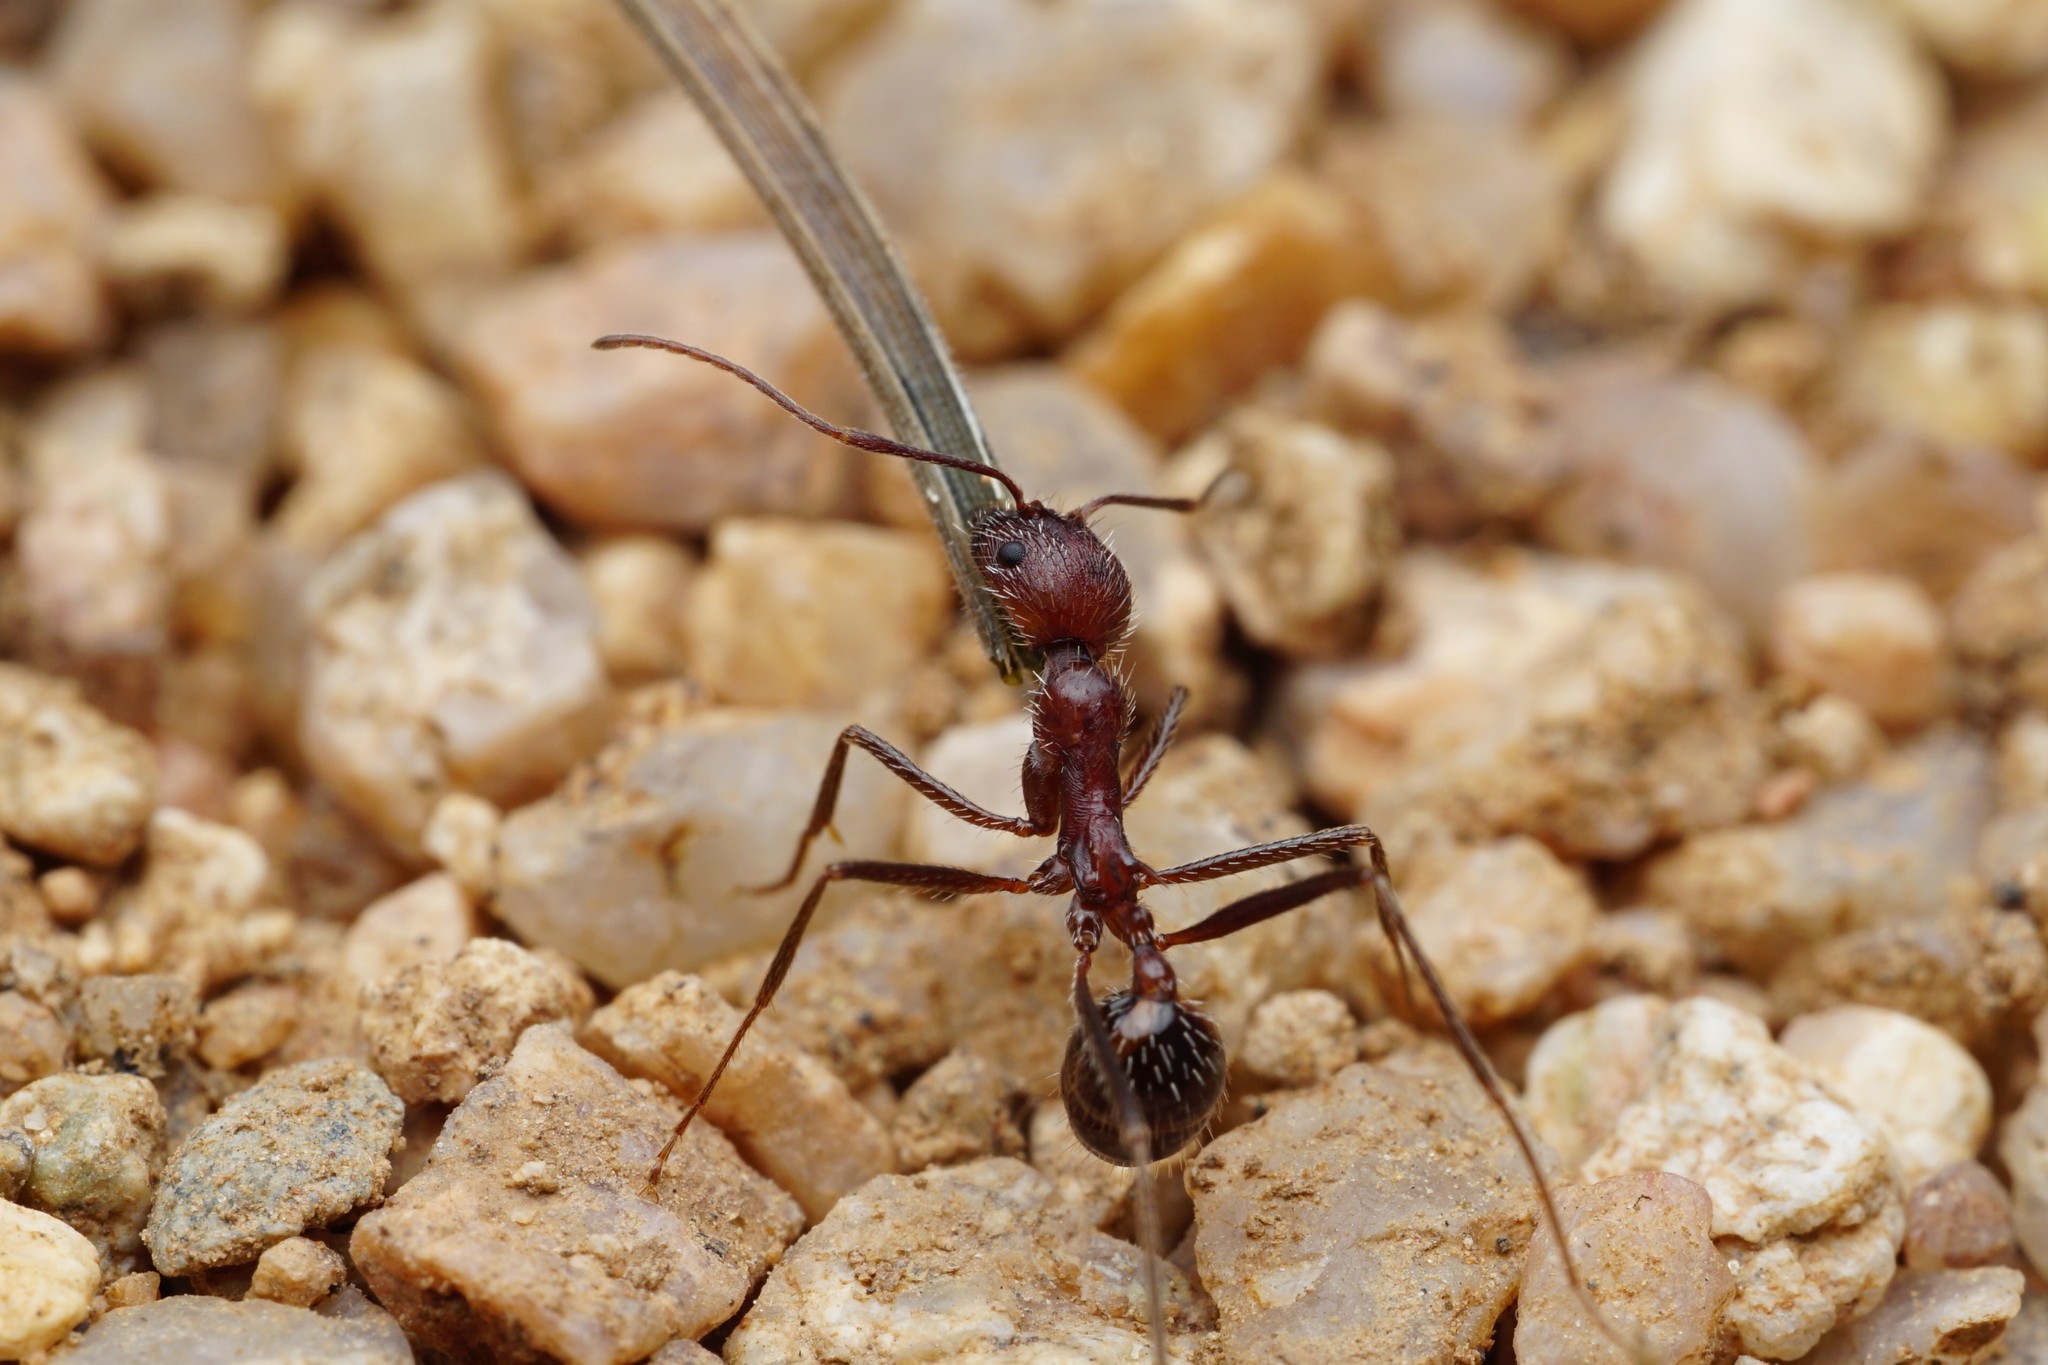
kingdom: Animalia
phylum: Arthropoda
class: Insecta
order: Hymenoptera
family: Formicidae
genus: Novomessor
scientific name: Novomessor albisetosa
